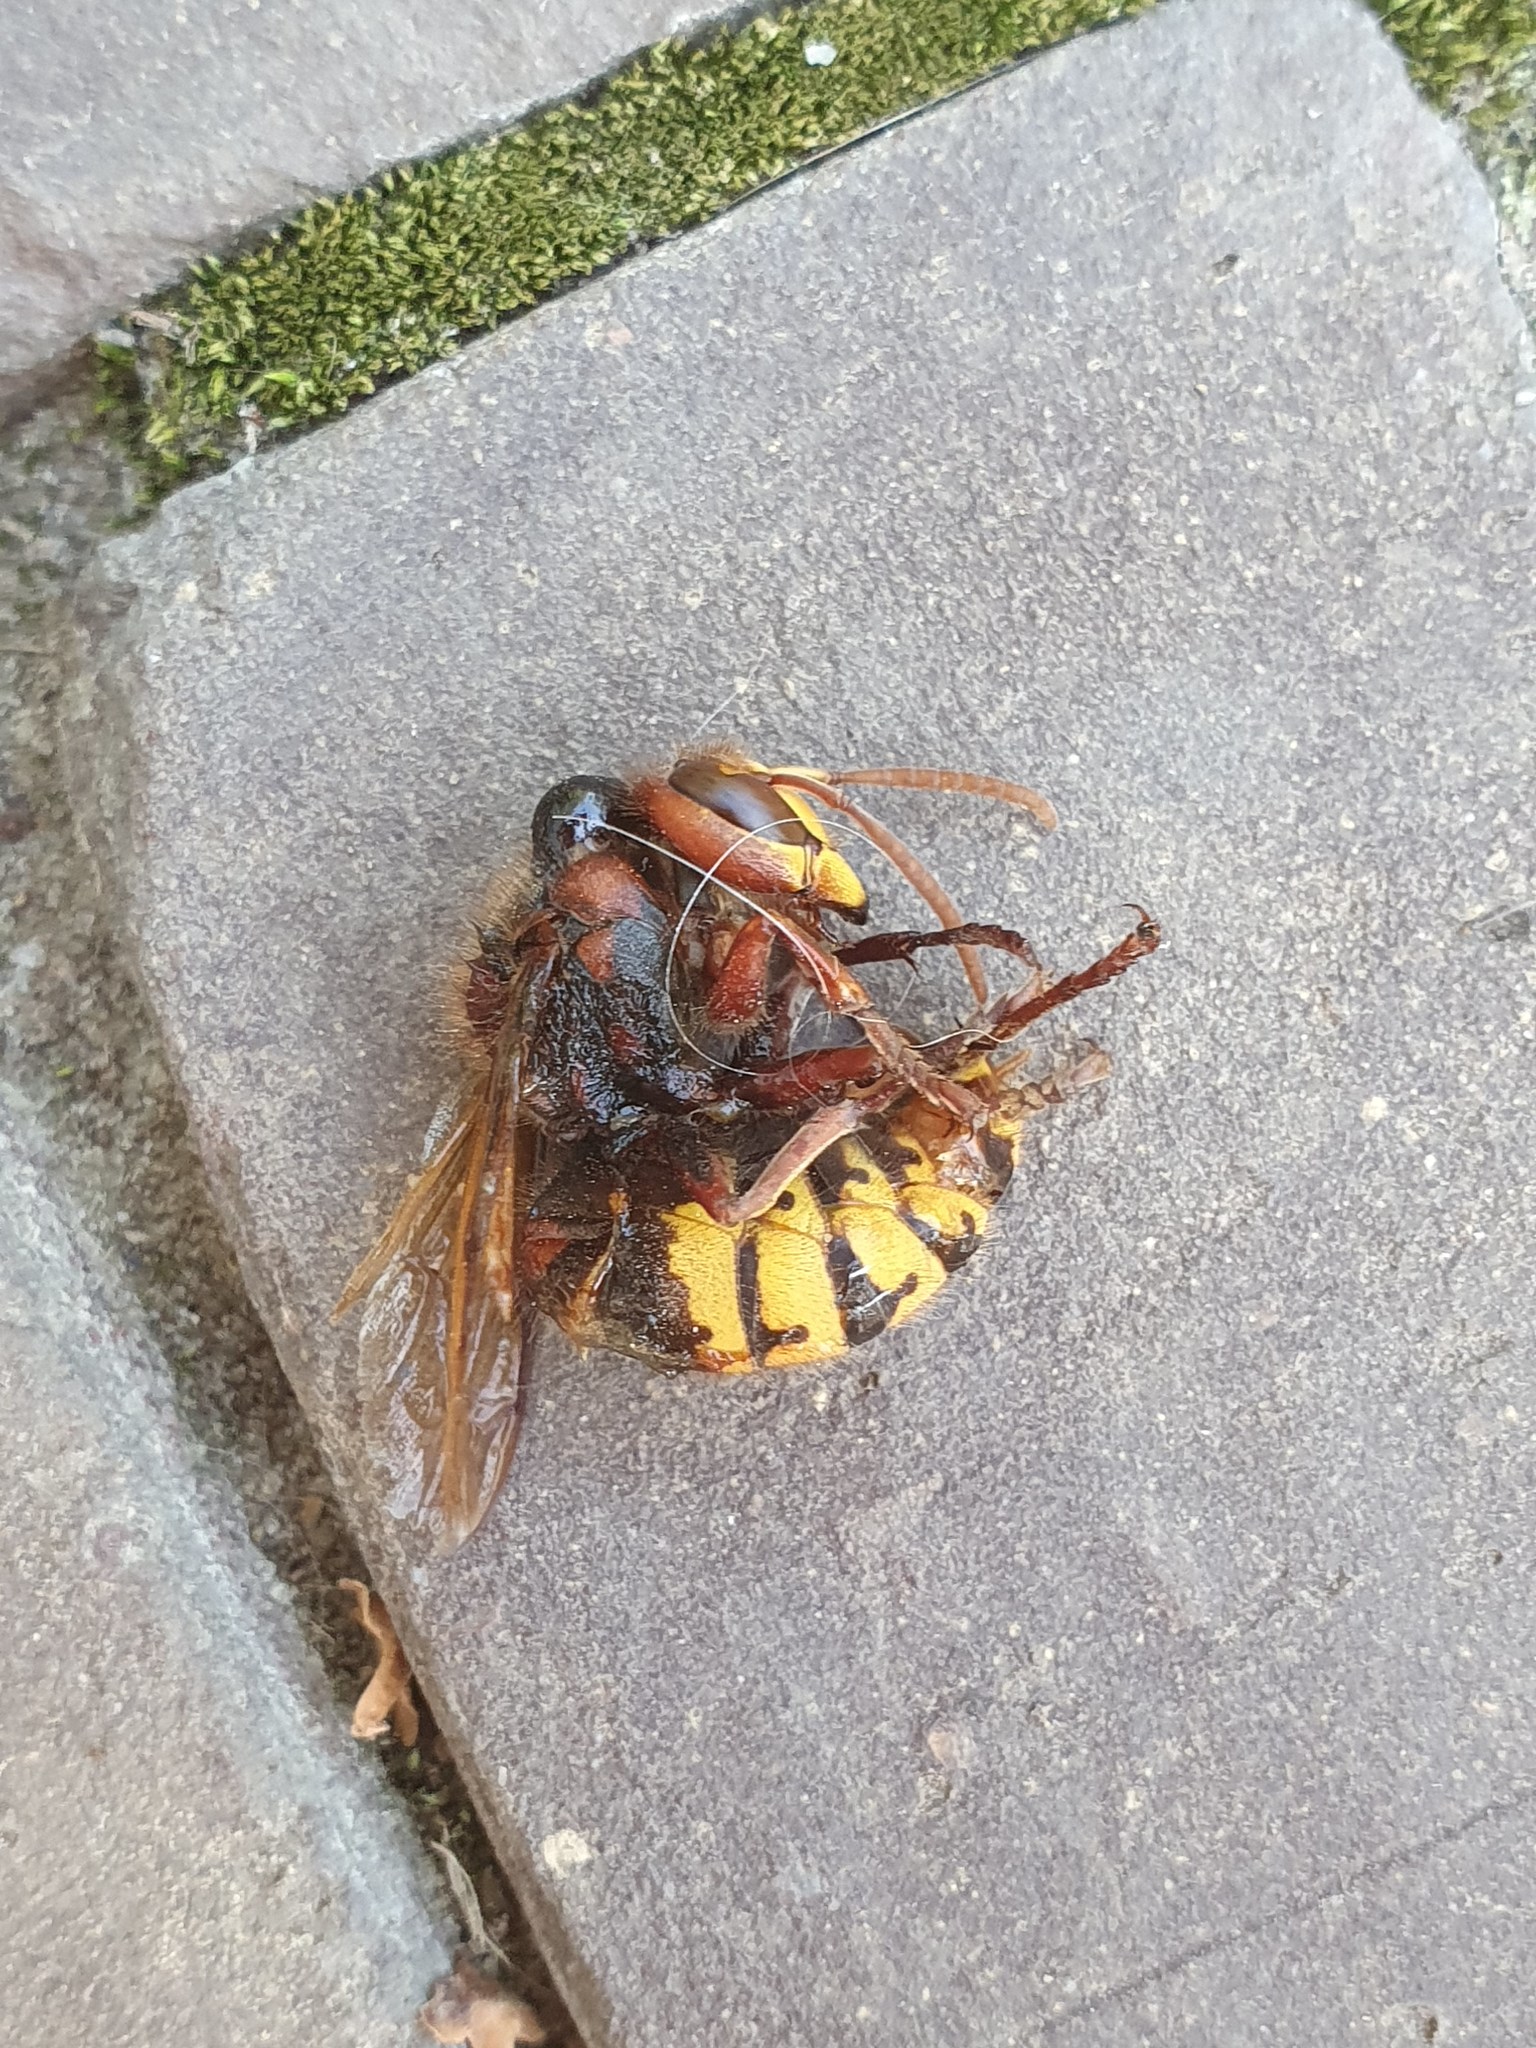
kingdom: Animalia
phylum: Arthropoda
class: Insecta
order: Hymenoptera
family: Vespidae
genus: Vespa
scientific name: Vespa crabro
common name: Hornet
